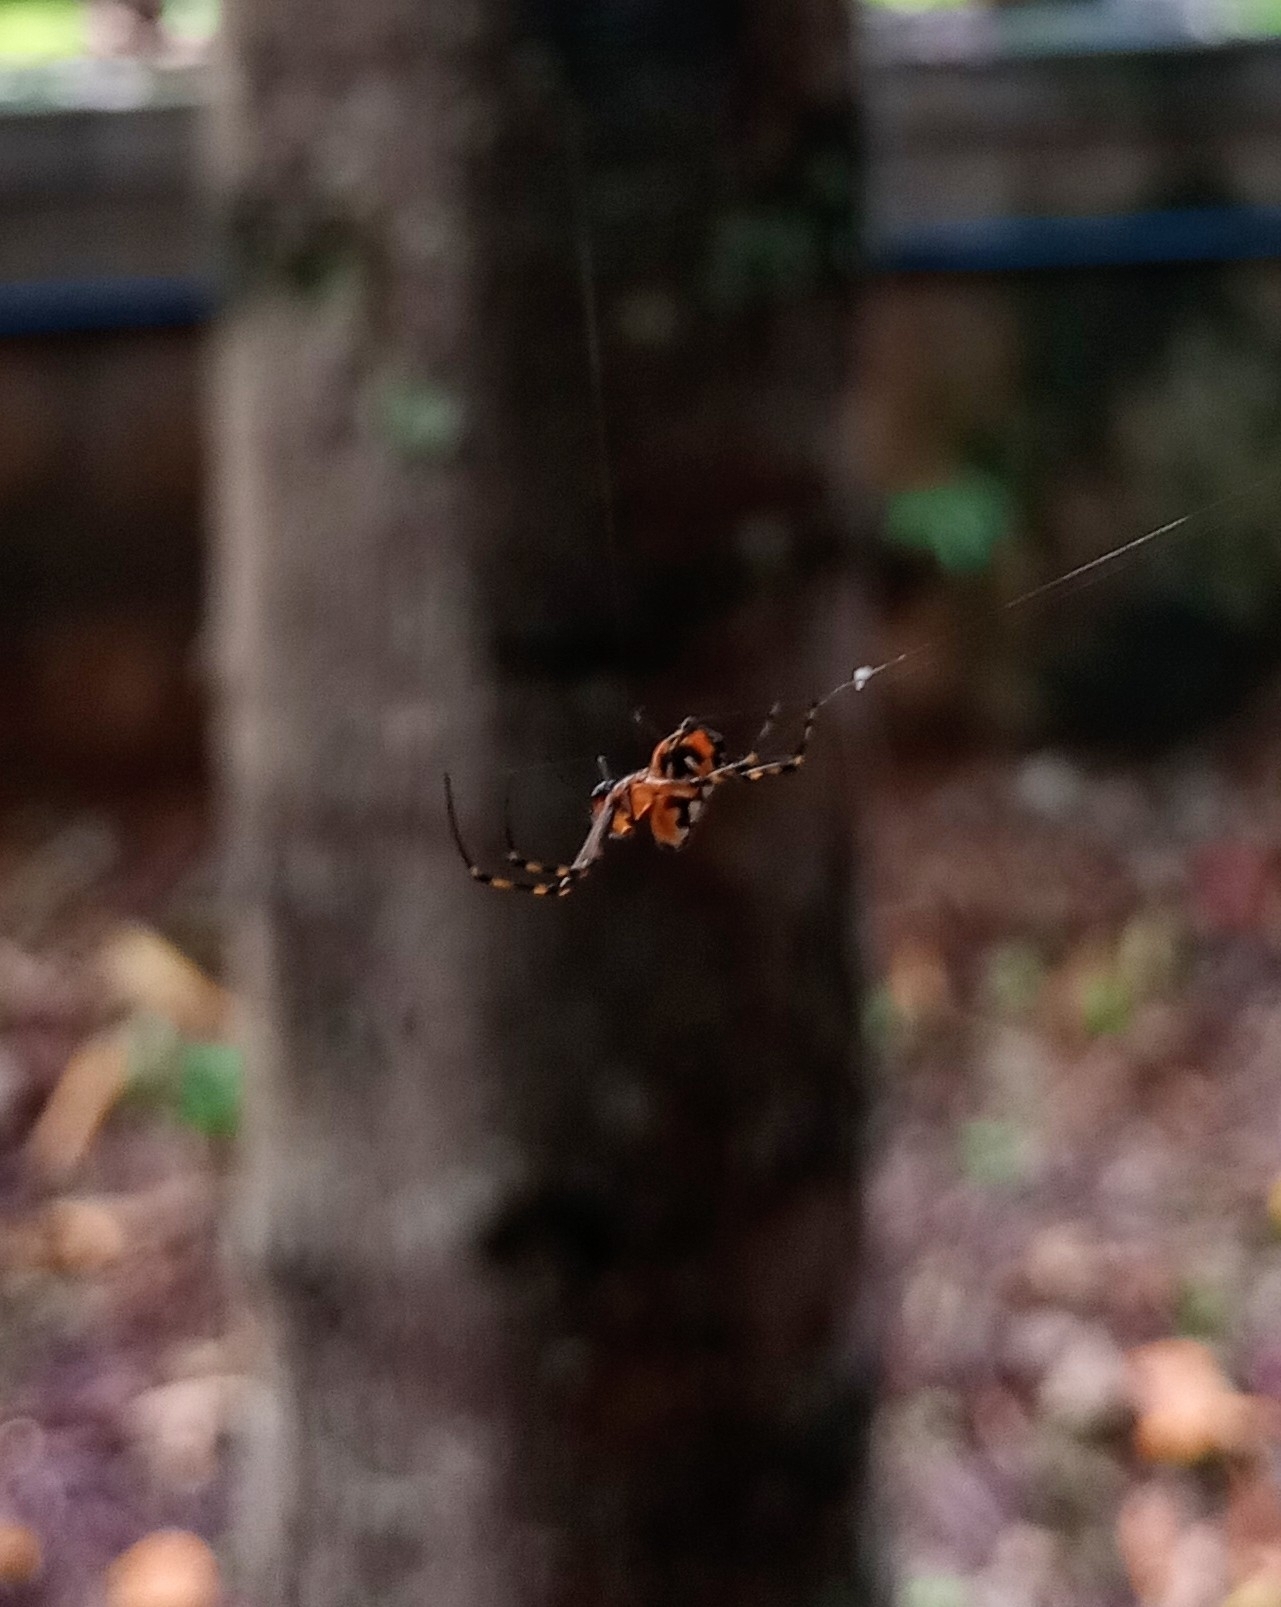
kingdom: Animalia
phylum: Arthropoda
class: Arachnida
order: Araneae
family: Tetragnathidae
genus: Leucauge
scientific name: Leucauge fastigata
